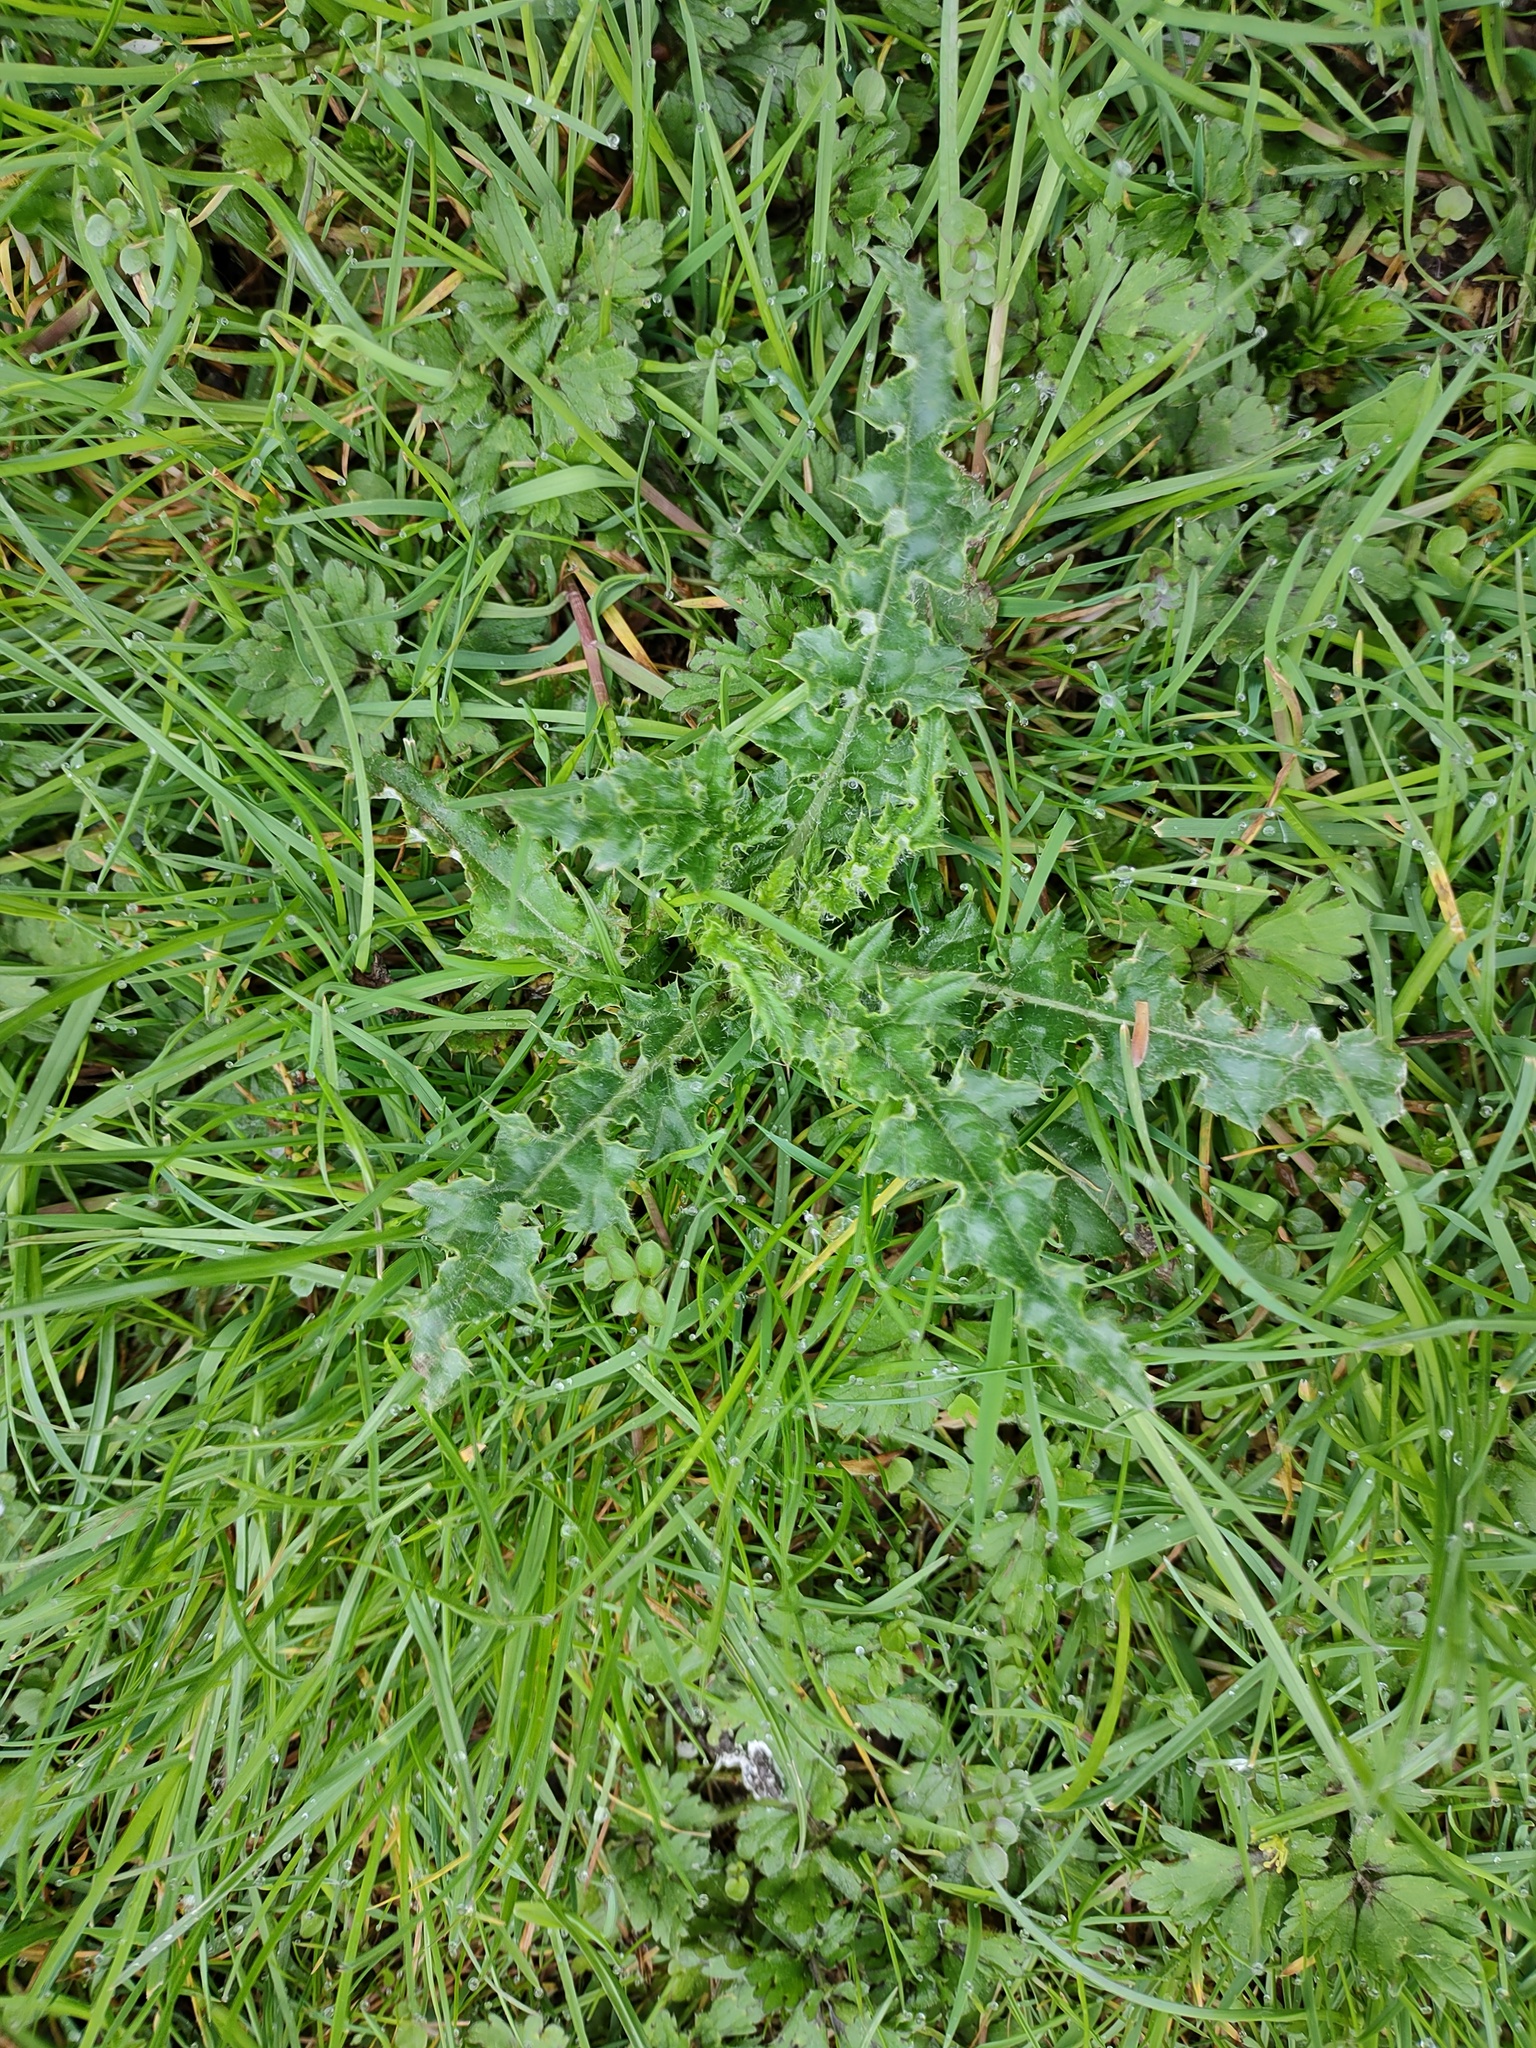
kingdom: Plantae
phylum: Tracheophyta
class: Magnoliopsida
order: Asterales
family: Asteraceae
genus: Cirsium
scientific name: Cirsium arvense
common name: Creeping thistle
